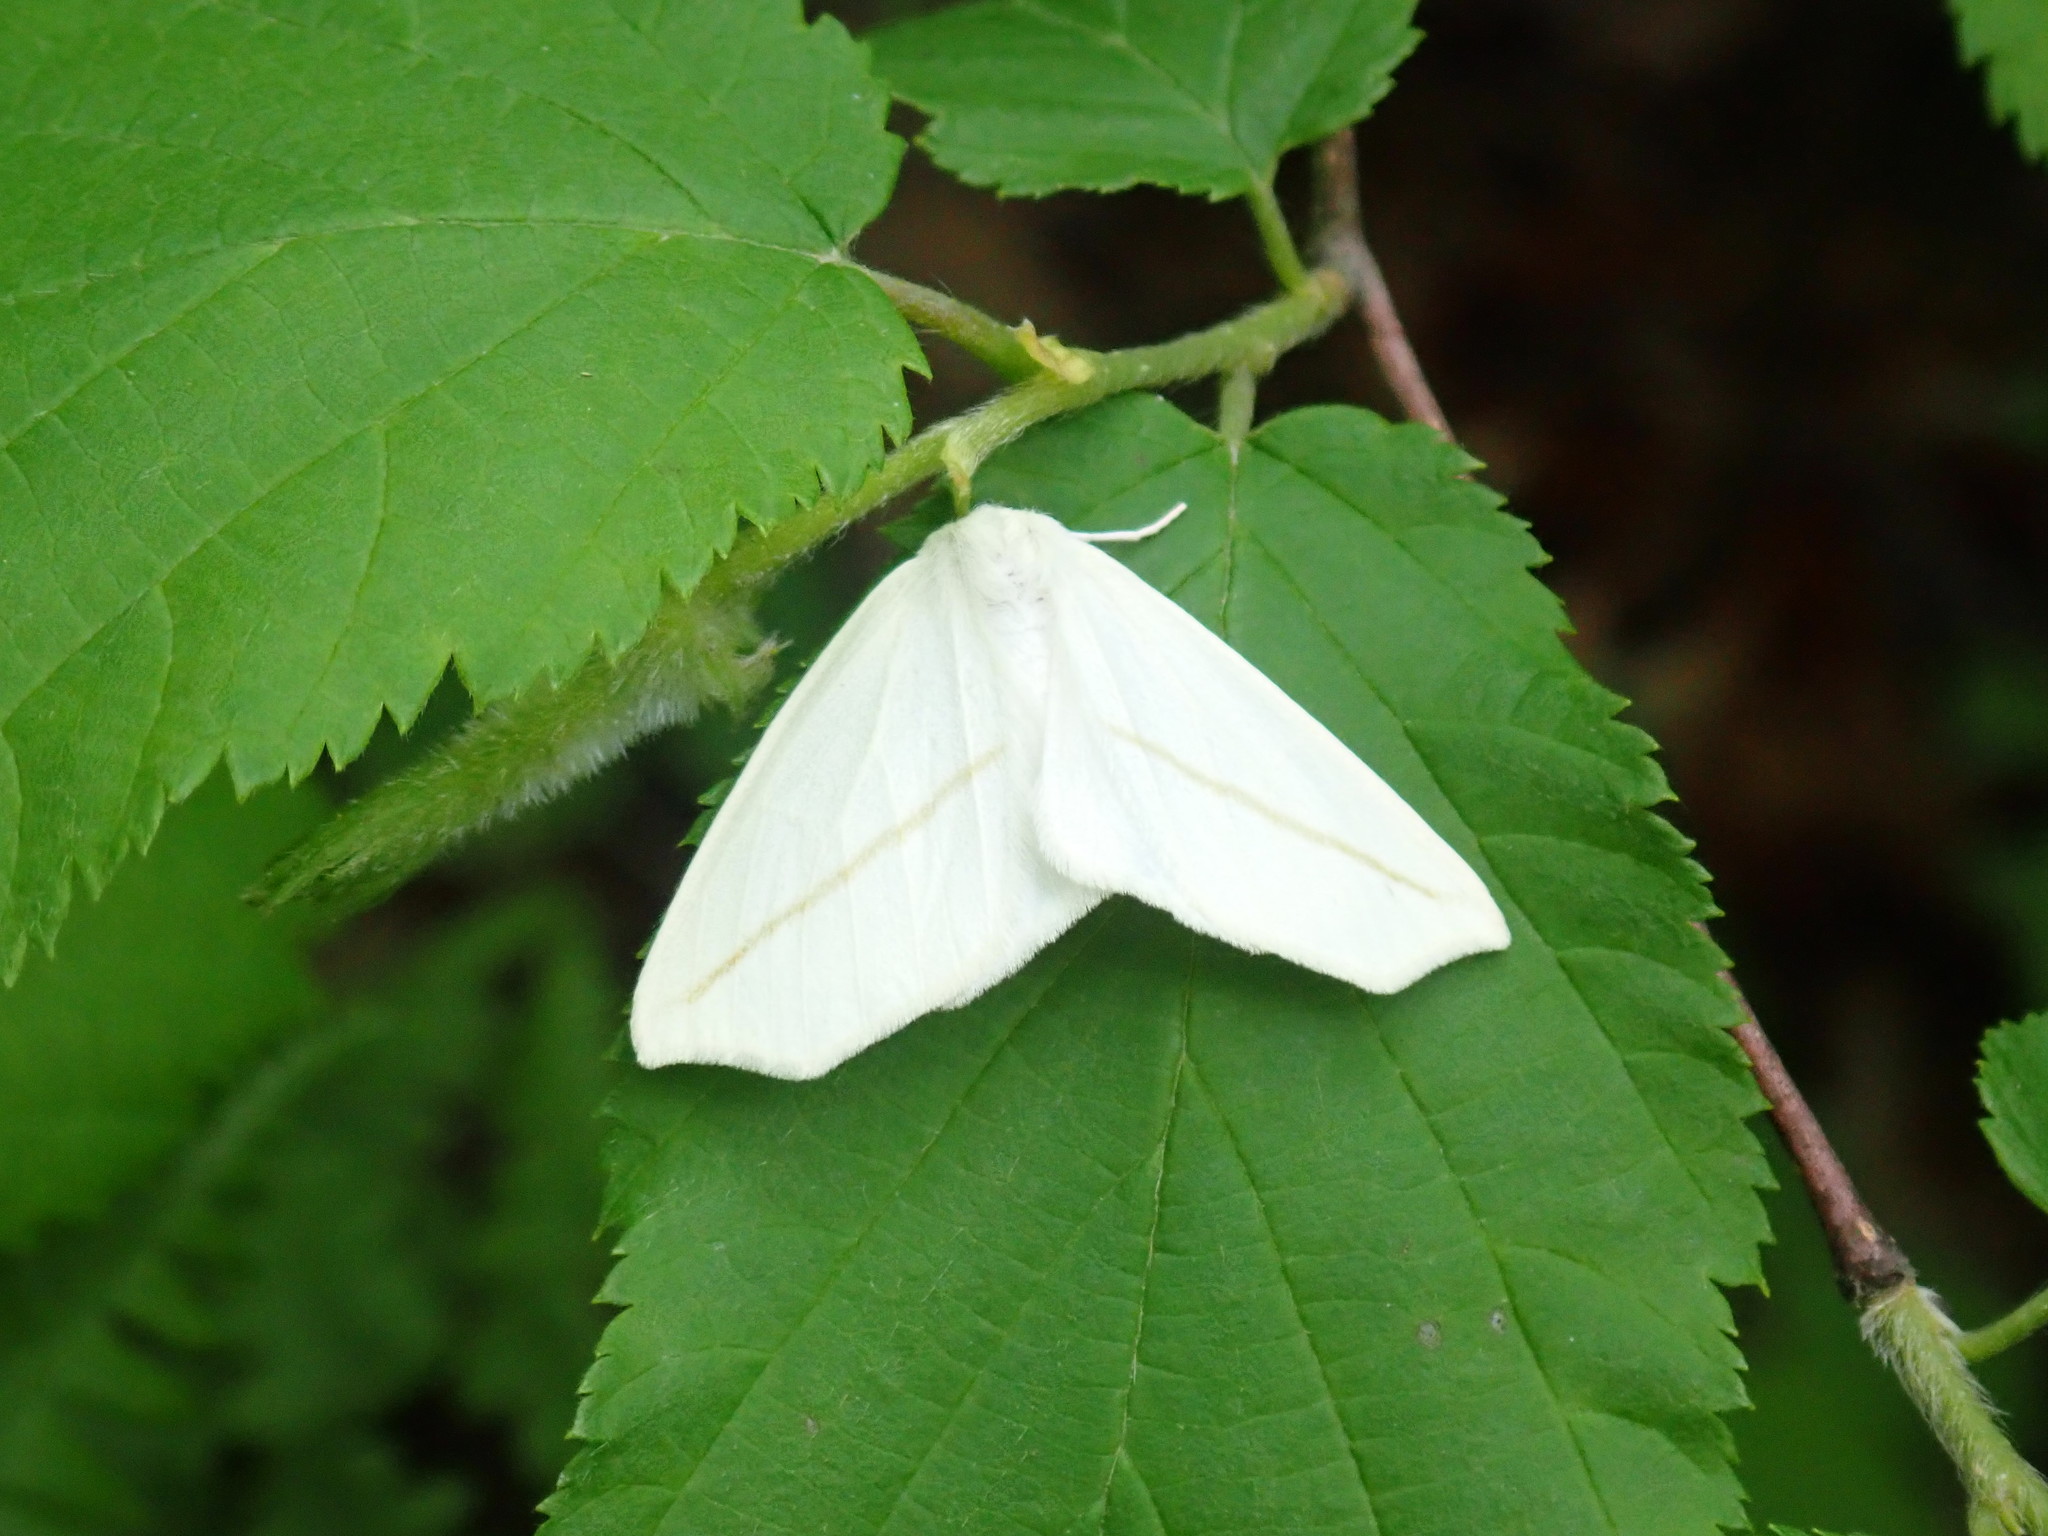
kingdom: Animalia
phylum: Arthropoda
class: Insecta
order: Lepidoptera
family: Geometridae
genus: Tetracis
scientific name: Tetracis cachexiata
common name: White slant-line
